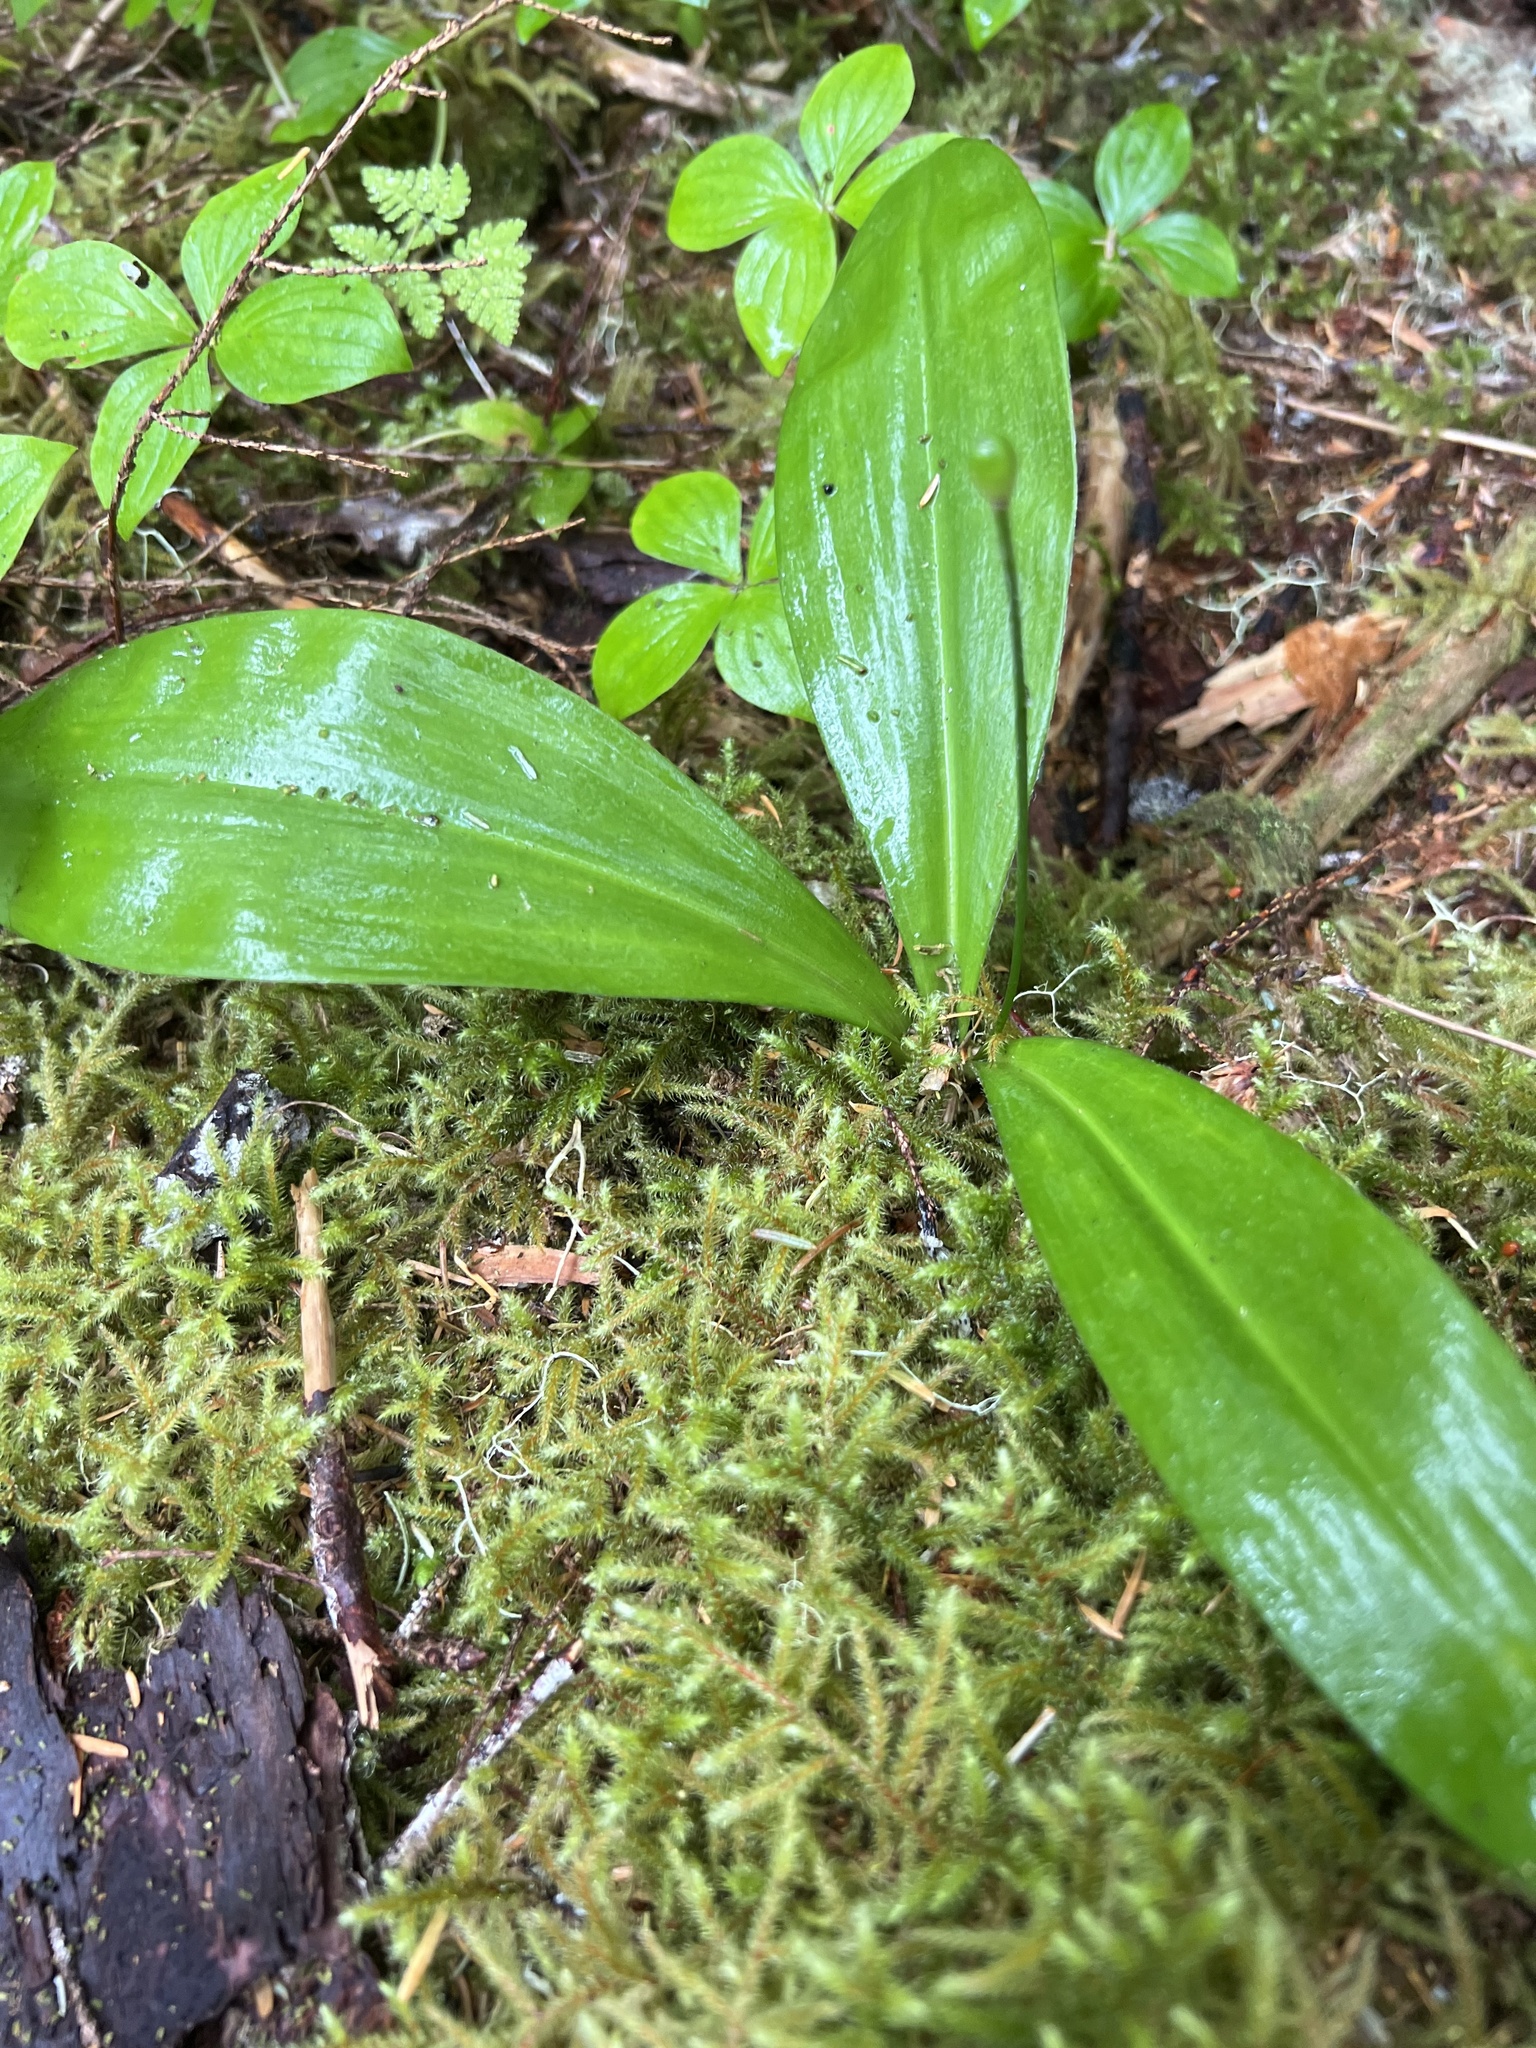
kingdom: Plantae
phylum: Tracheophyta
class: Liliopsida
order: Liliales
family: Liliaceae
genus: Clintonia
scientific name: Clintonia uniflora
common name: Queen's cup
